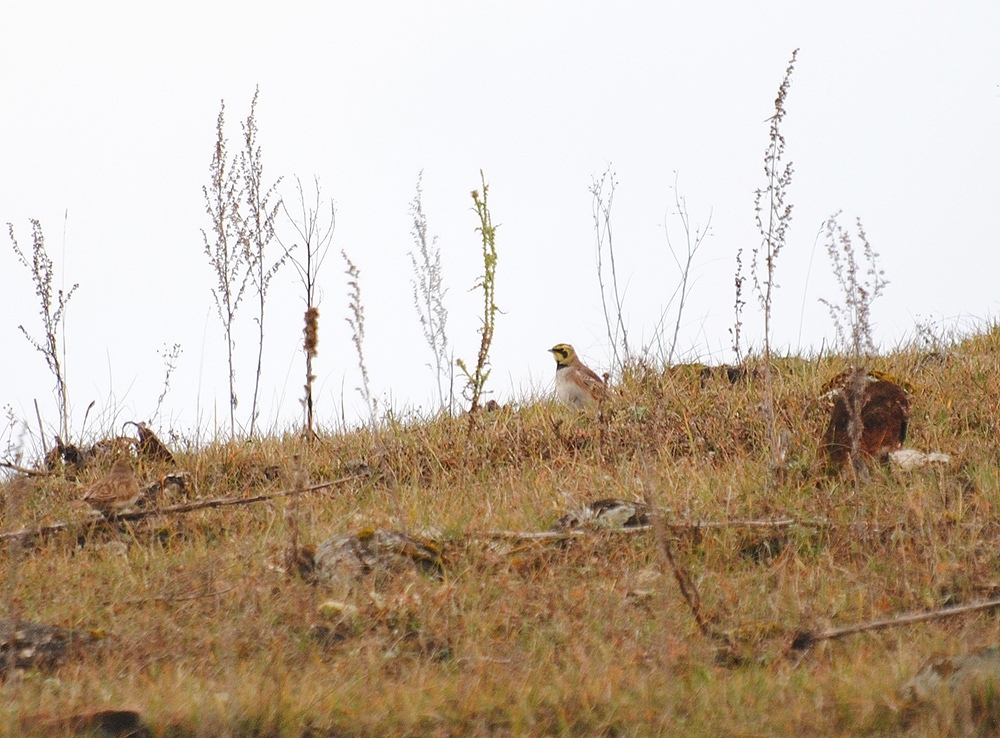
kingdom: Animalia
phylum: Chordata
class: Aves
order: Passeriformes
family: Alaudidae
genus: Eremophila
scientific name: Eremophila alpestris
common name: Horned lark
